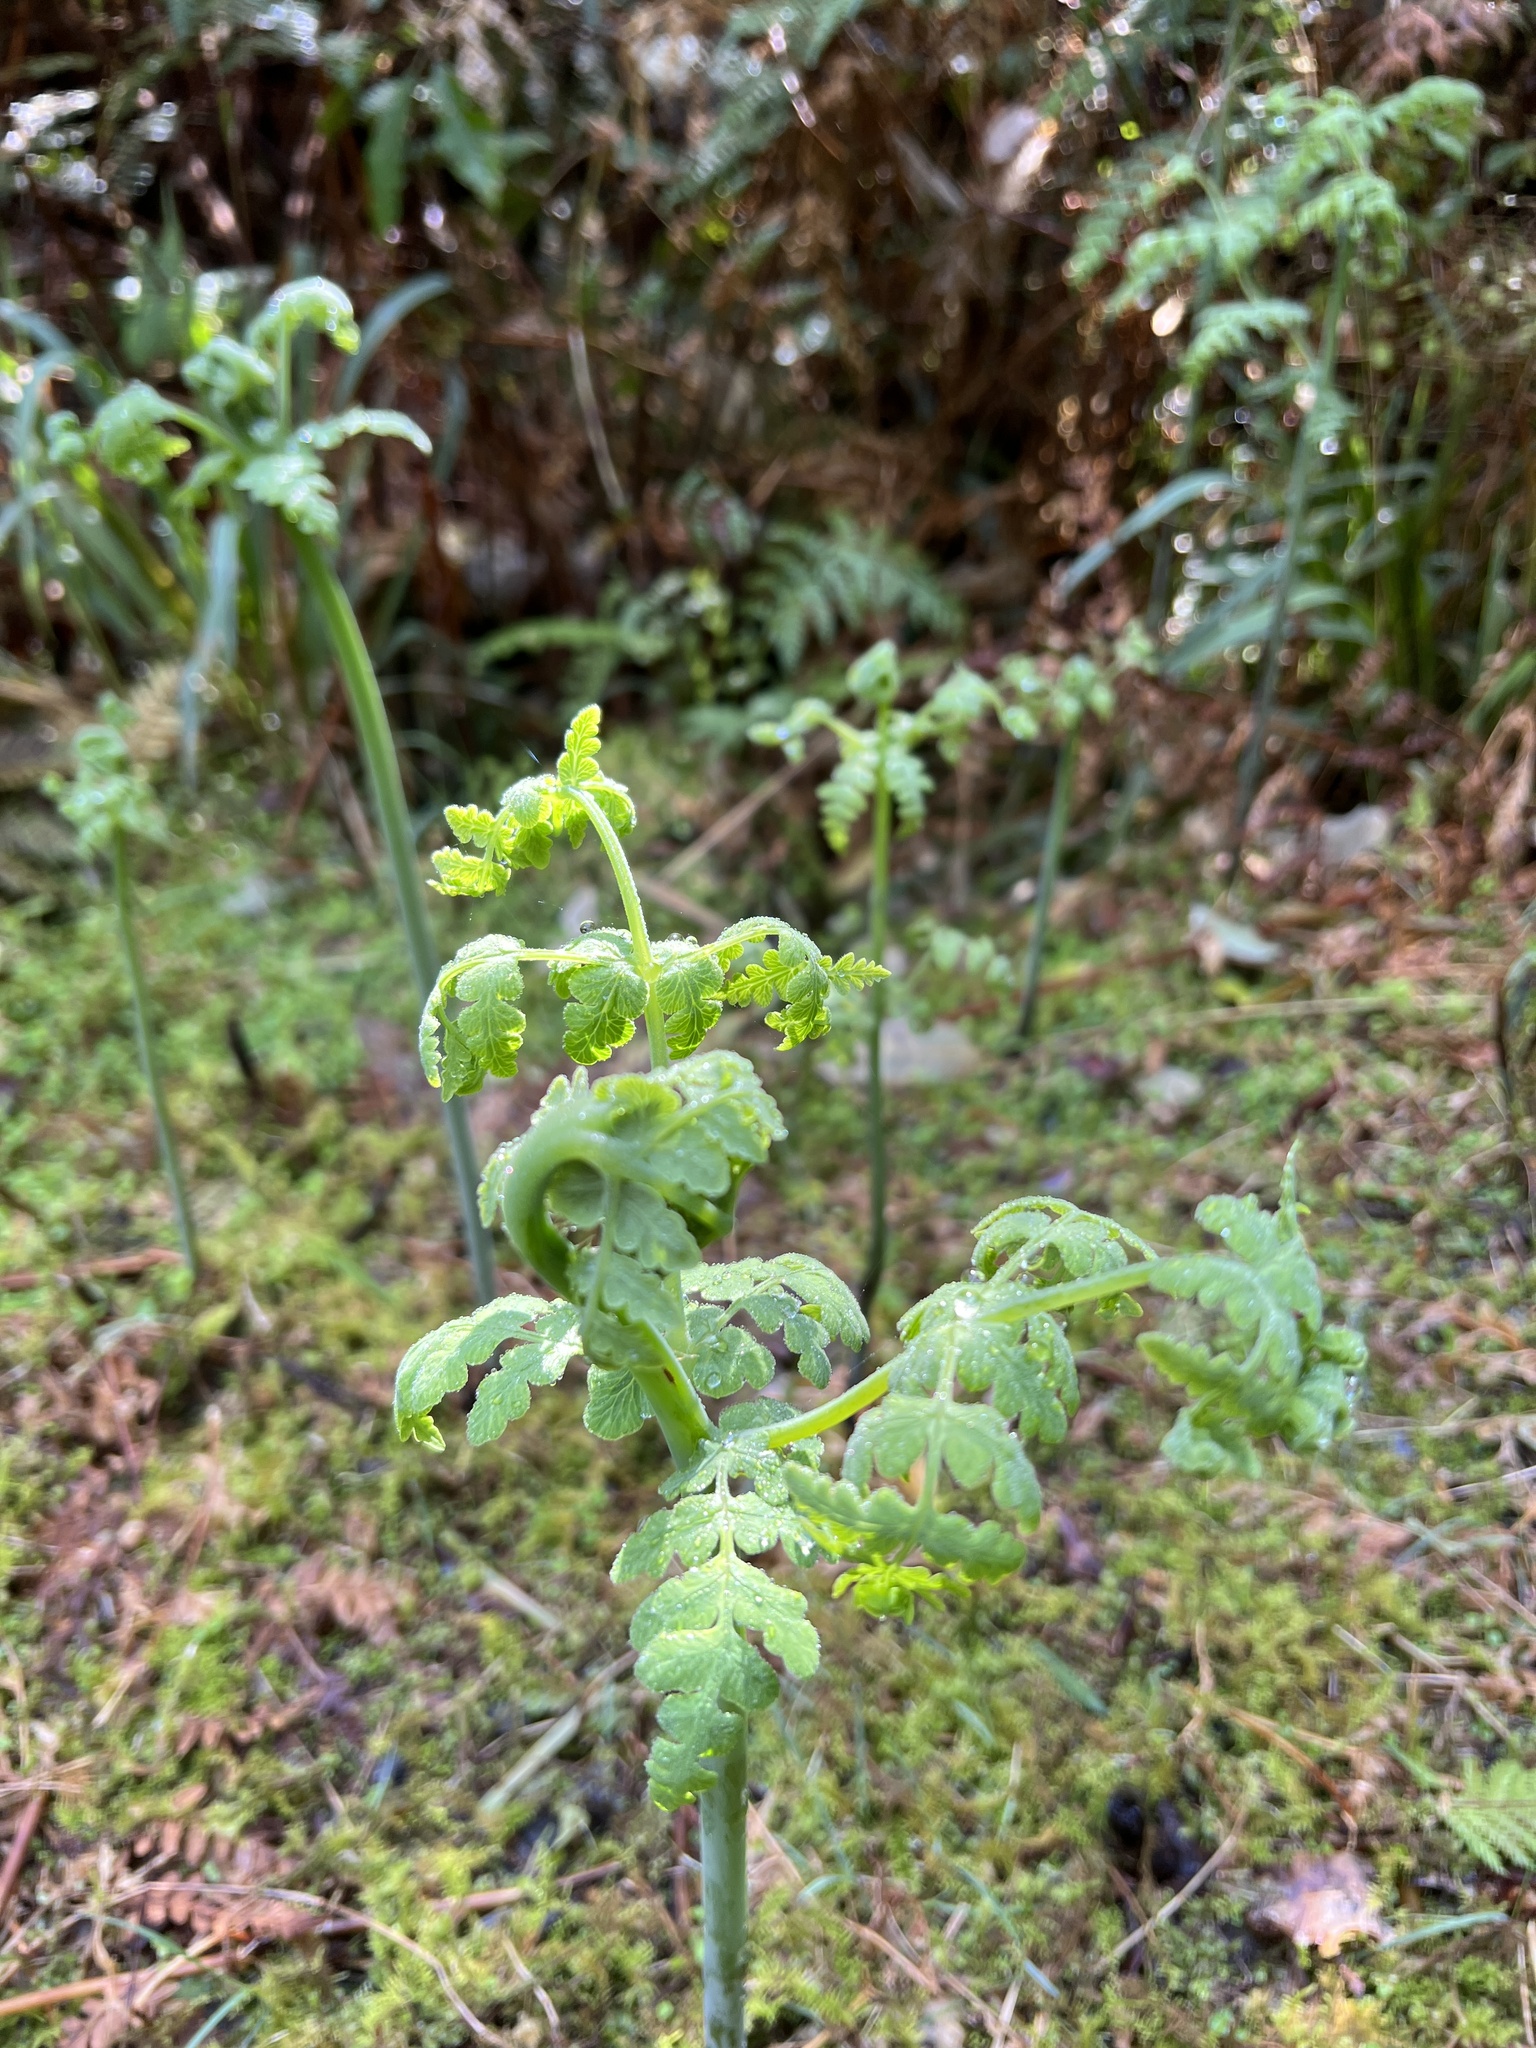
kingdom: Plantae
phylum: Tracheophyta
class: Polypodiopsida
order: Polypodiales
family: Dennstaedtiaceae
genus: Histiopteris
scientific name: Histiopteris incisa
